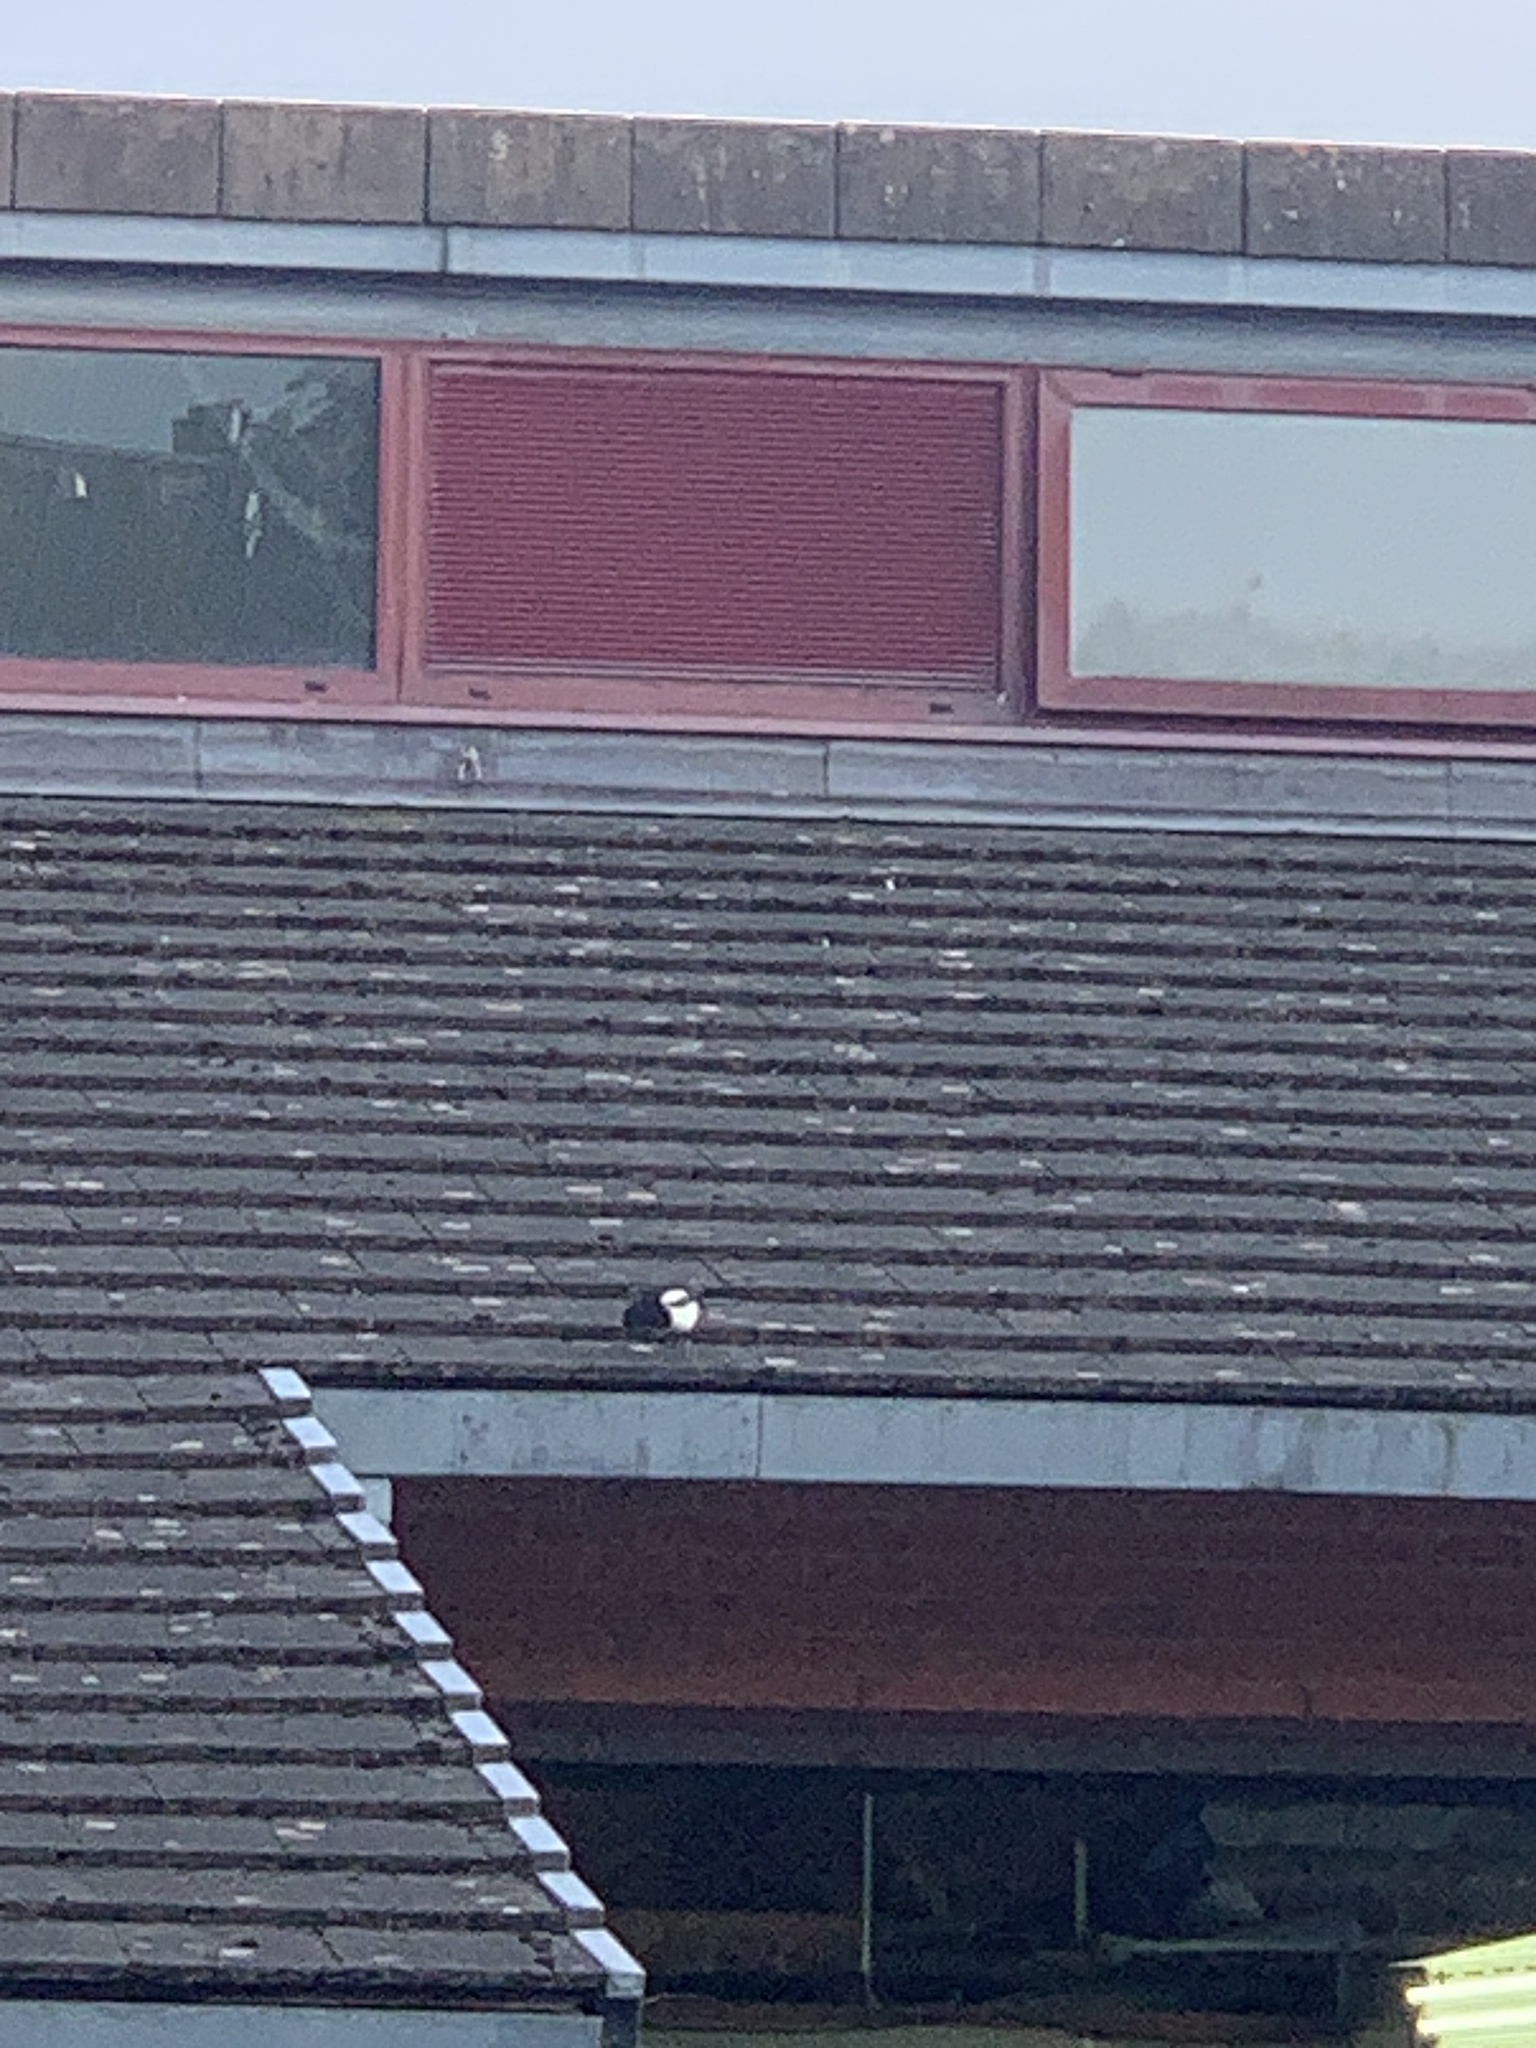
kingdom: Animalia
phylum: Chordata
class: Aves
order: Passeriformes
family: Corvidae
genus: Pica
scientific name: Pica pica
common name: Eurasian magpie
